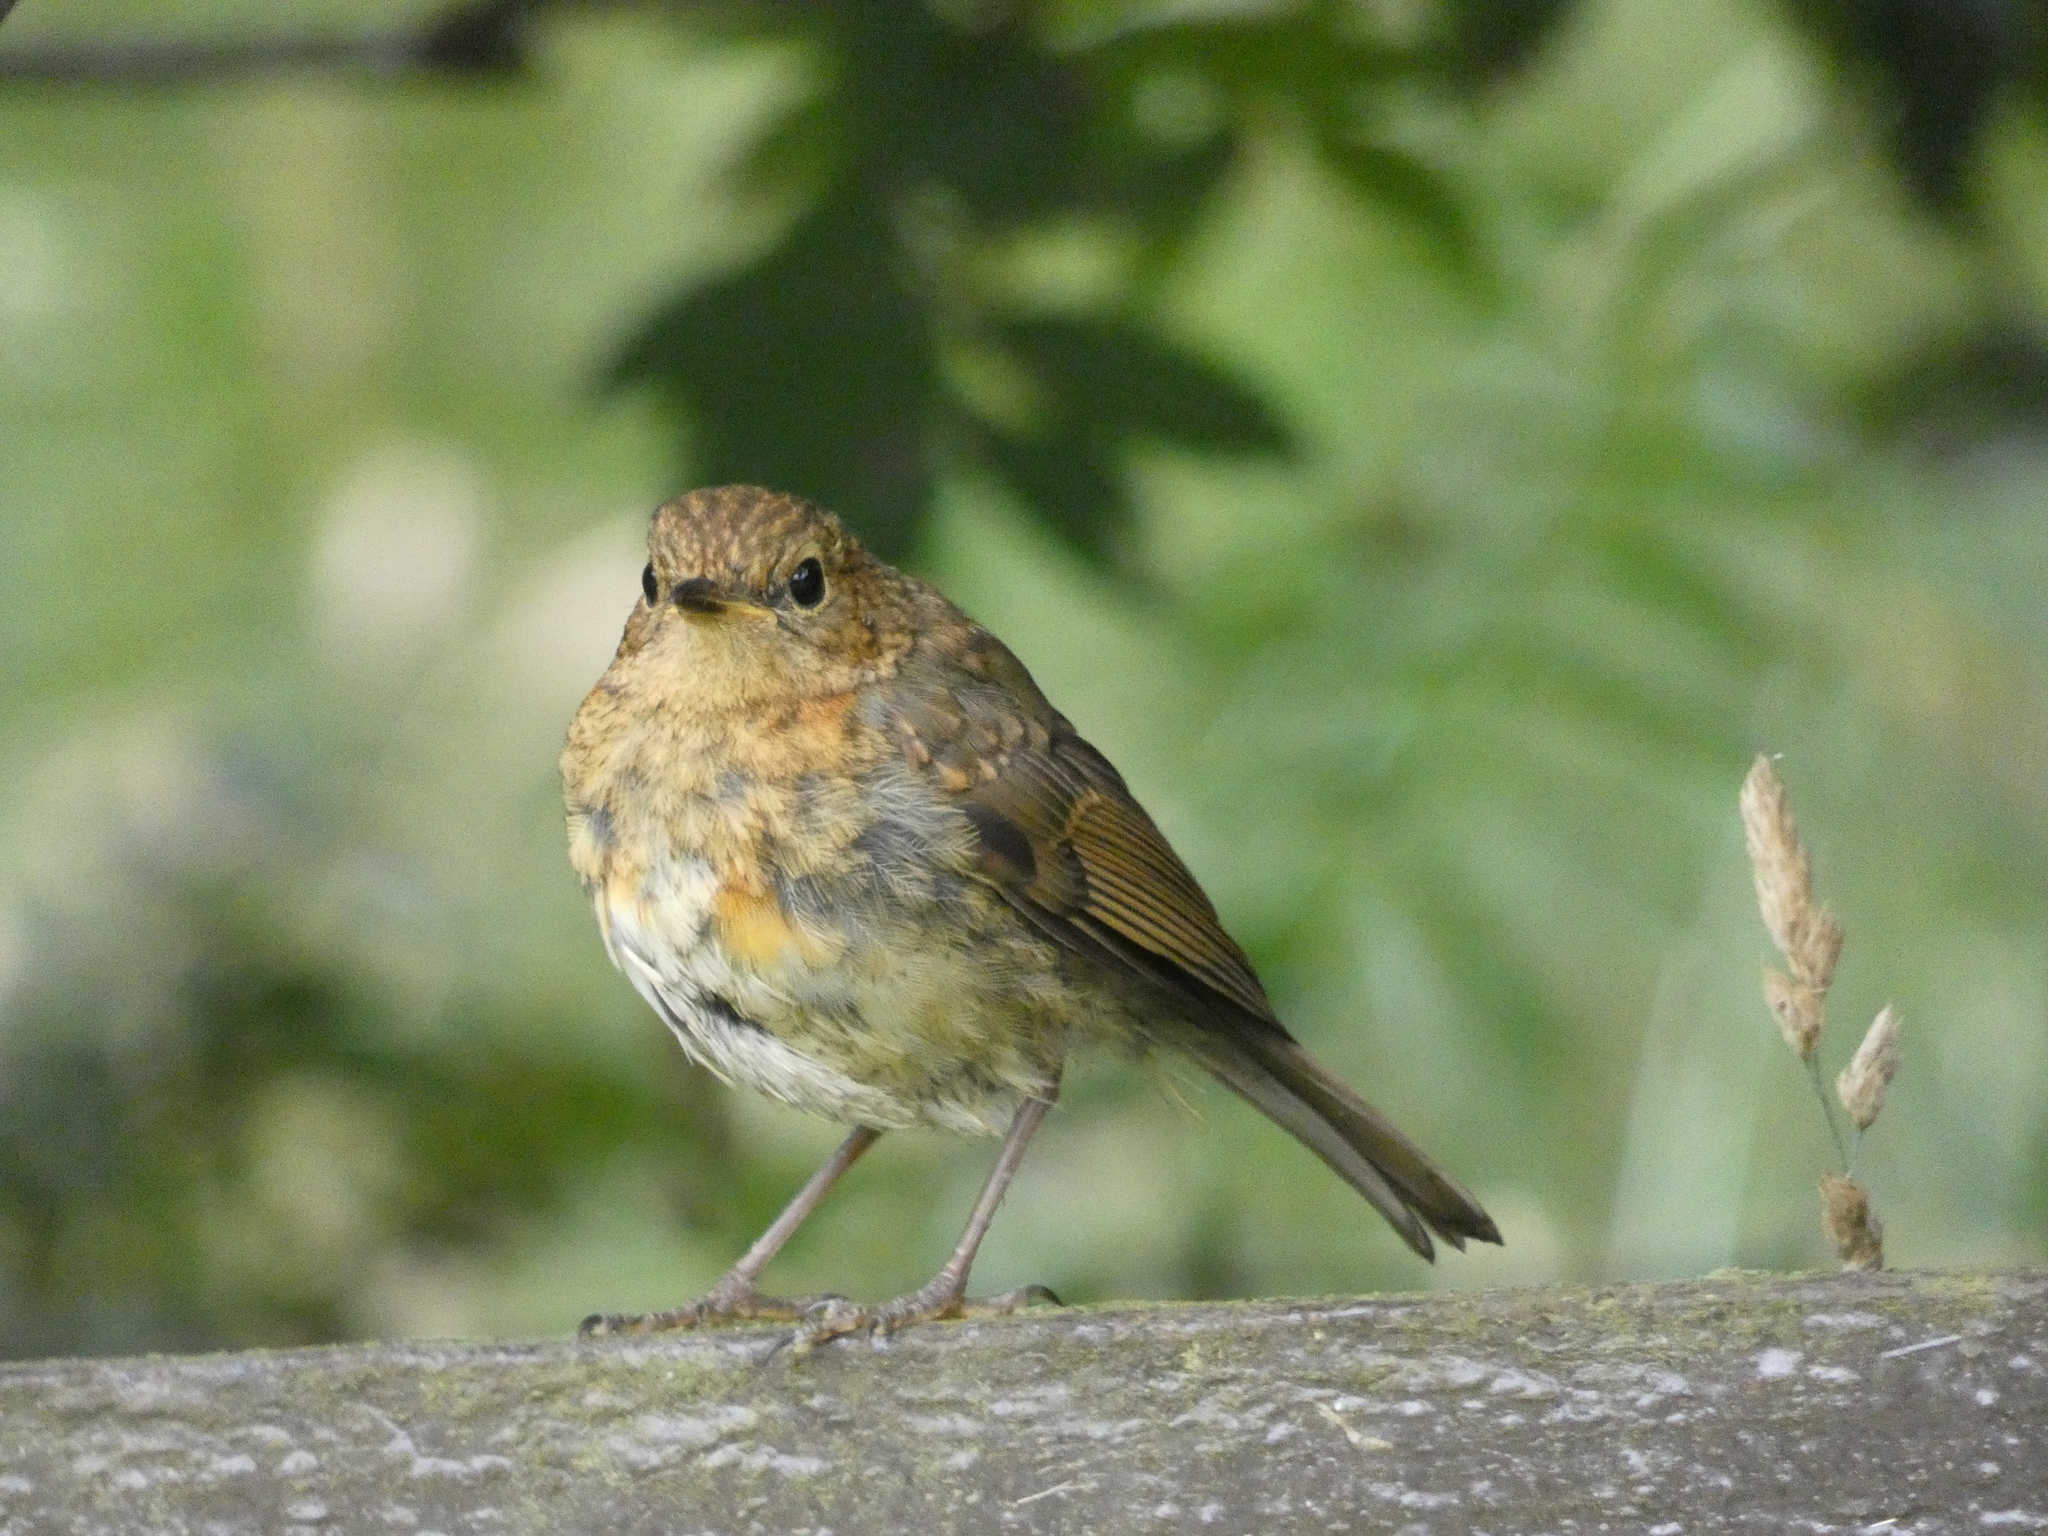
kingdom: Animalia
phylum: Chordata
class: Aves
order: Passeriformes
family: Muscicapidae
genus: Erithacus
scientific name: Erithacus rubecula
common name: European robin
